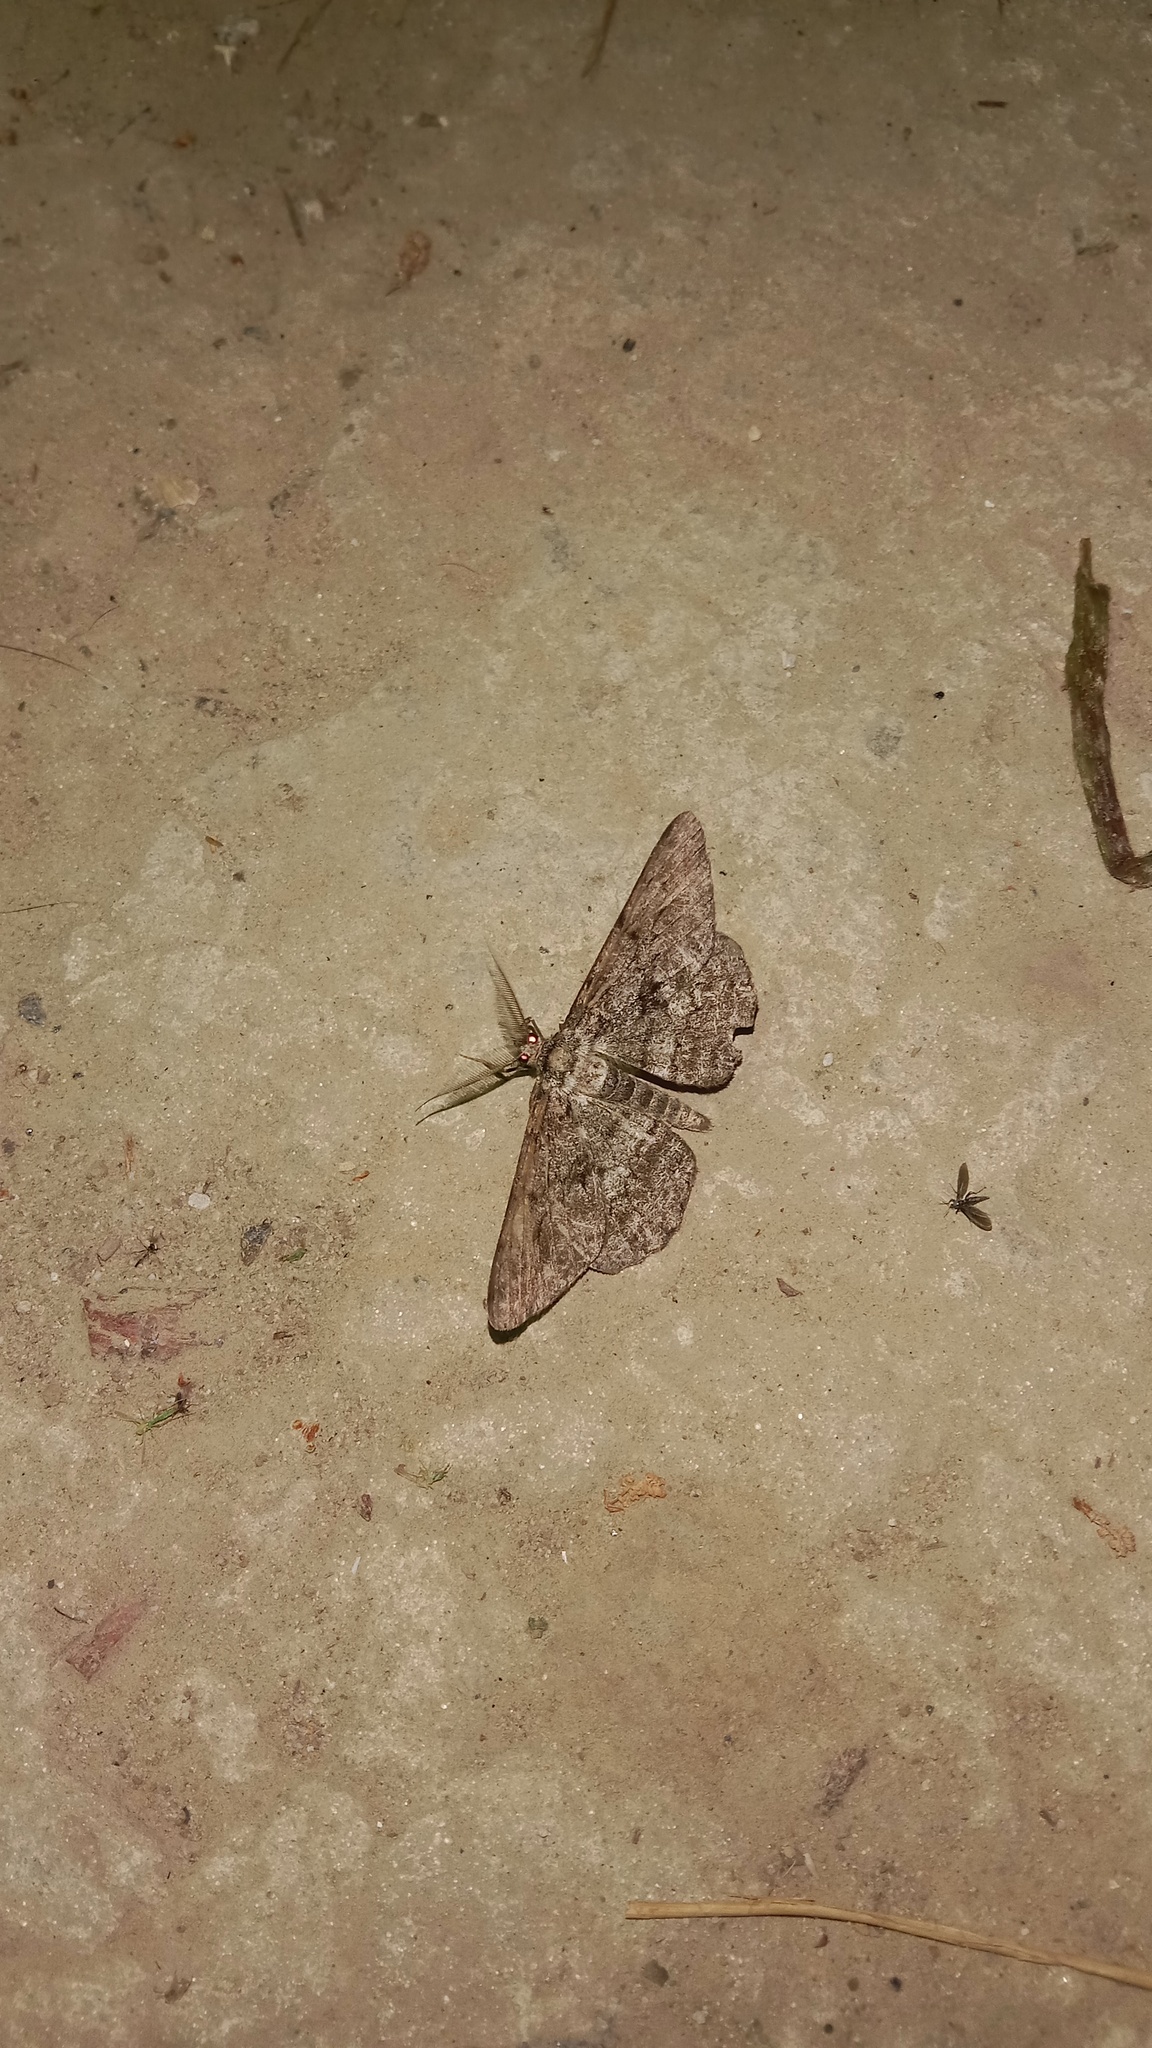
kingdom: Animalia
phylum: Arthropoda
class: Insecta
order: Lepidoptera
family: Geometridae
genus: Hypomecis
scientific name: Hypomecis roboraria
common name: Great oak beauty
